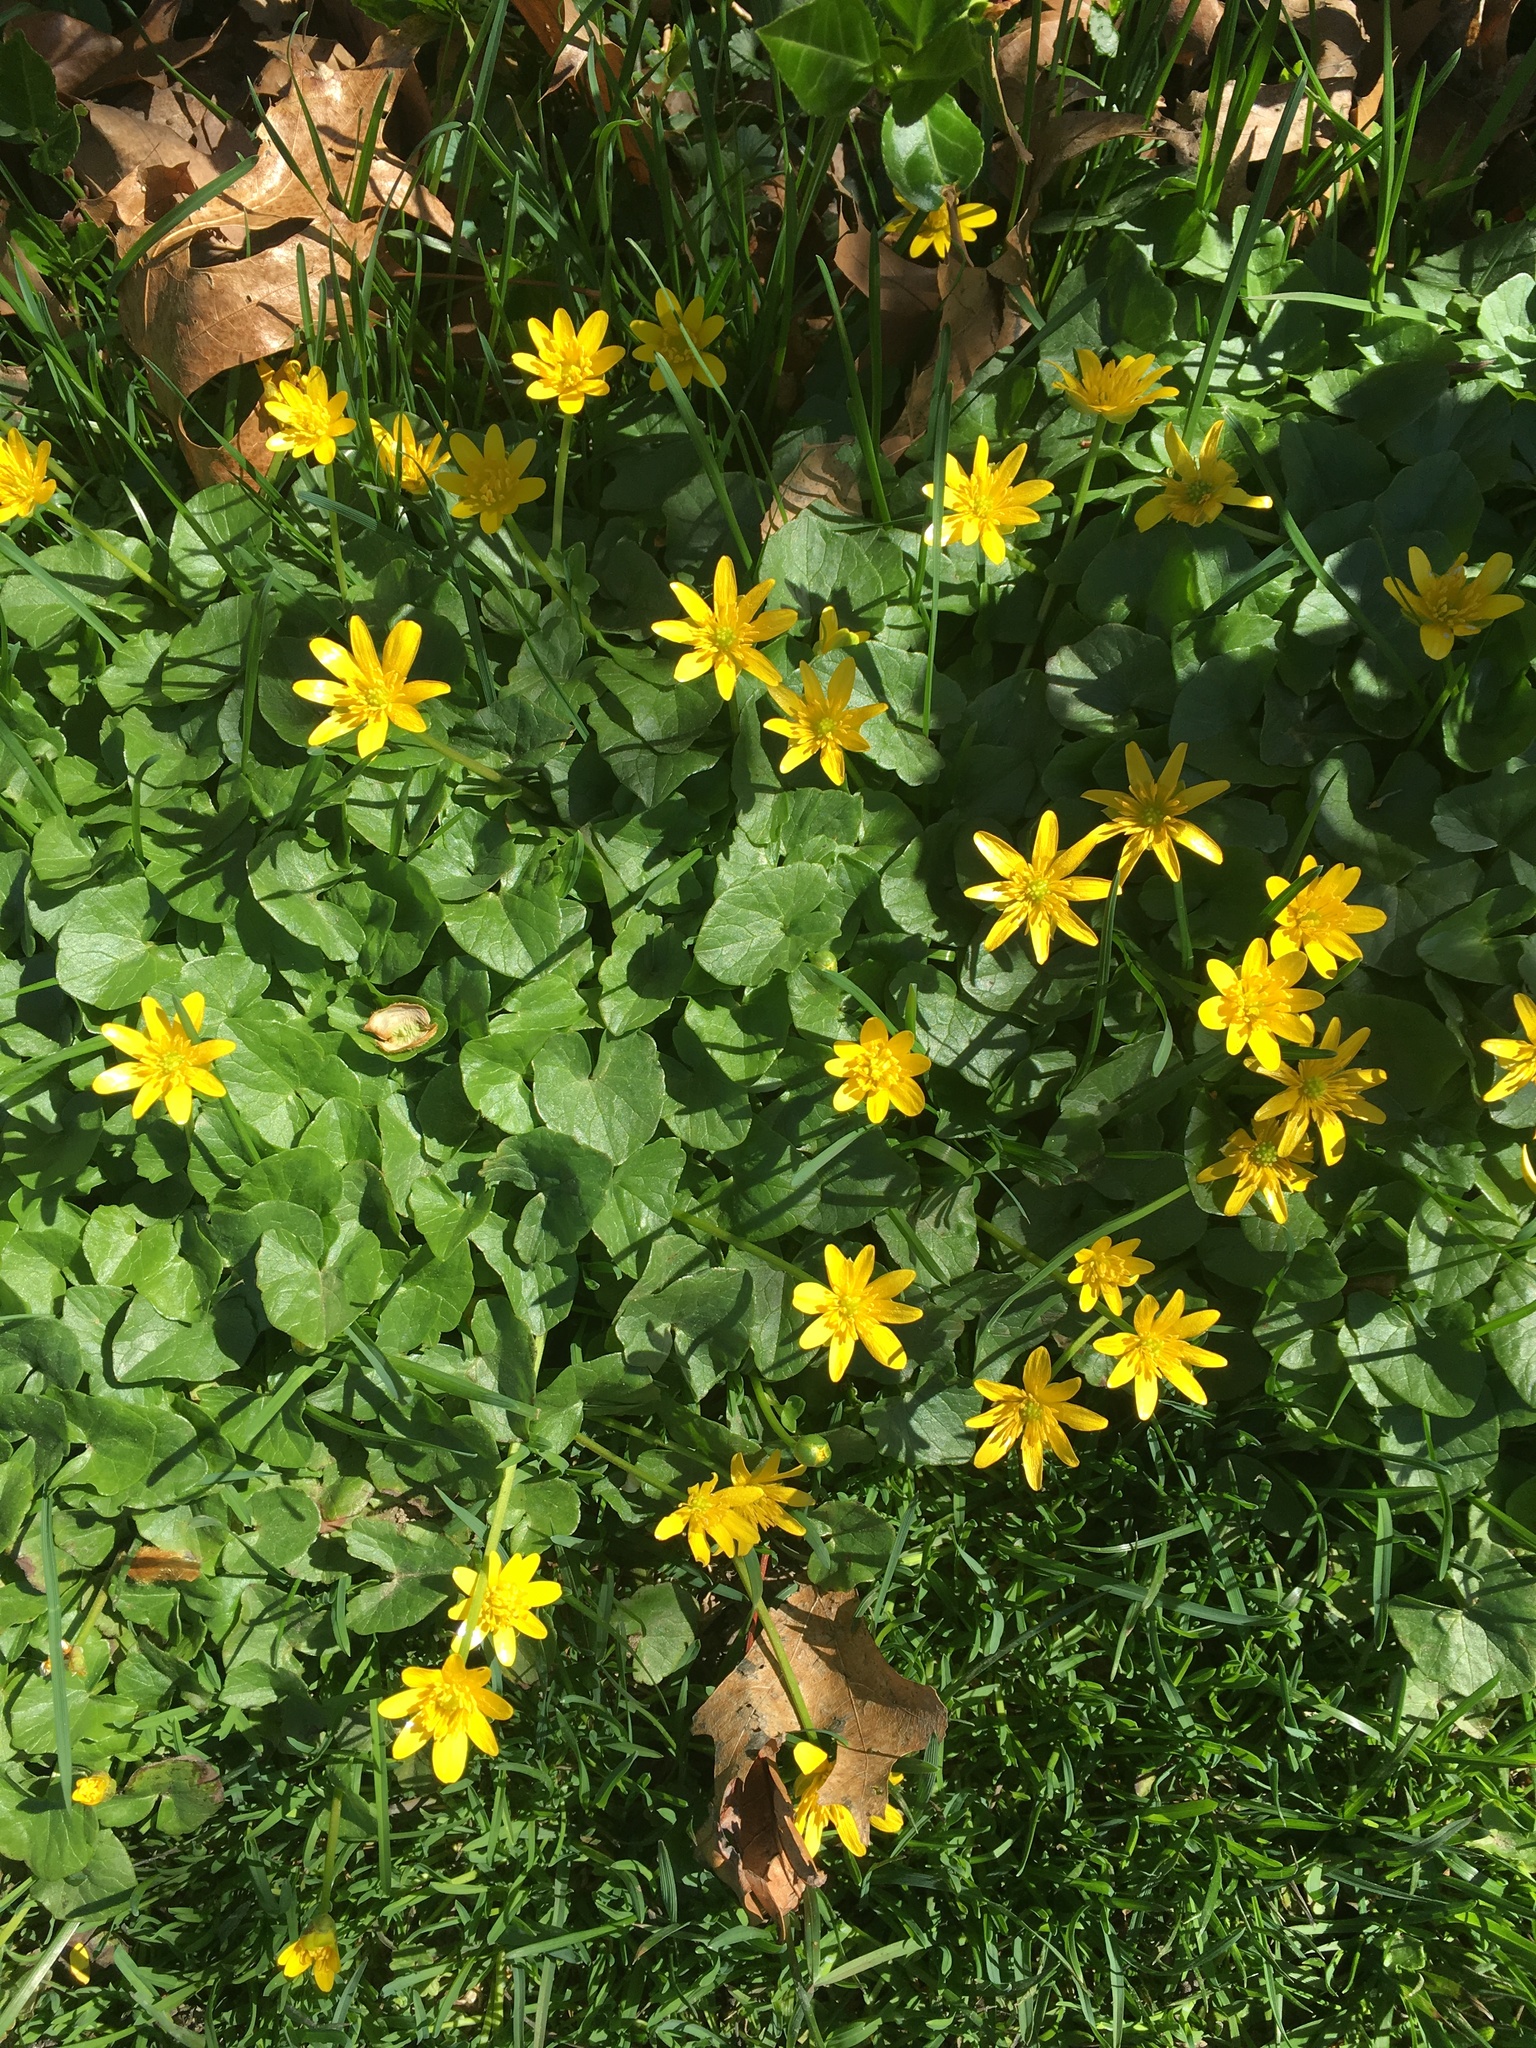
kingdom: Plantae
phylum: Tracheophyta
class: Magnoliopsida
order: Ranunculales
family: Ranunculaceae
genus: Ficaria
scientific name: Ficaria verna
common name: Lesser celandine
